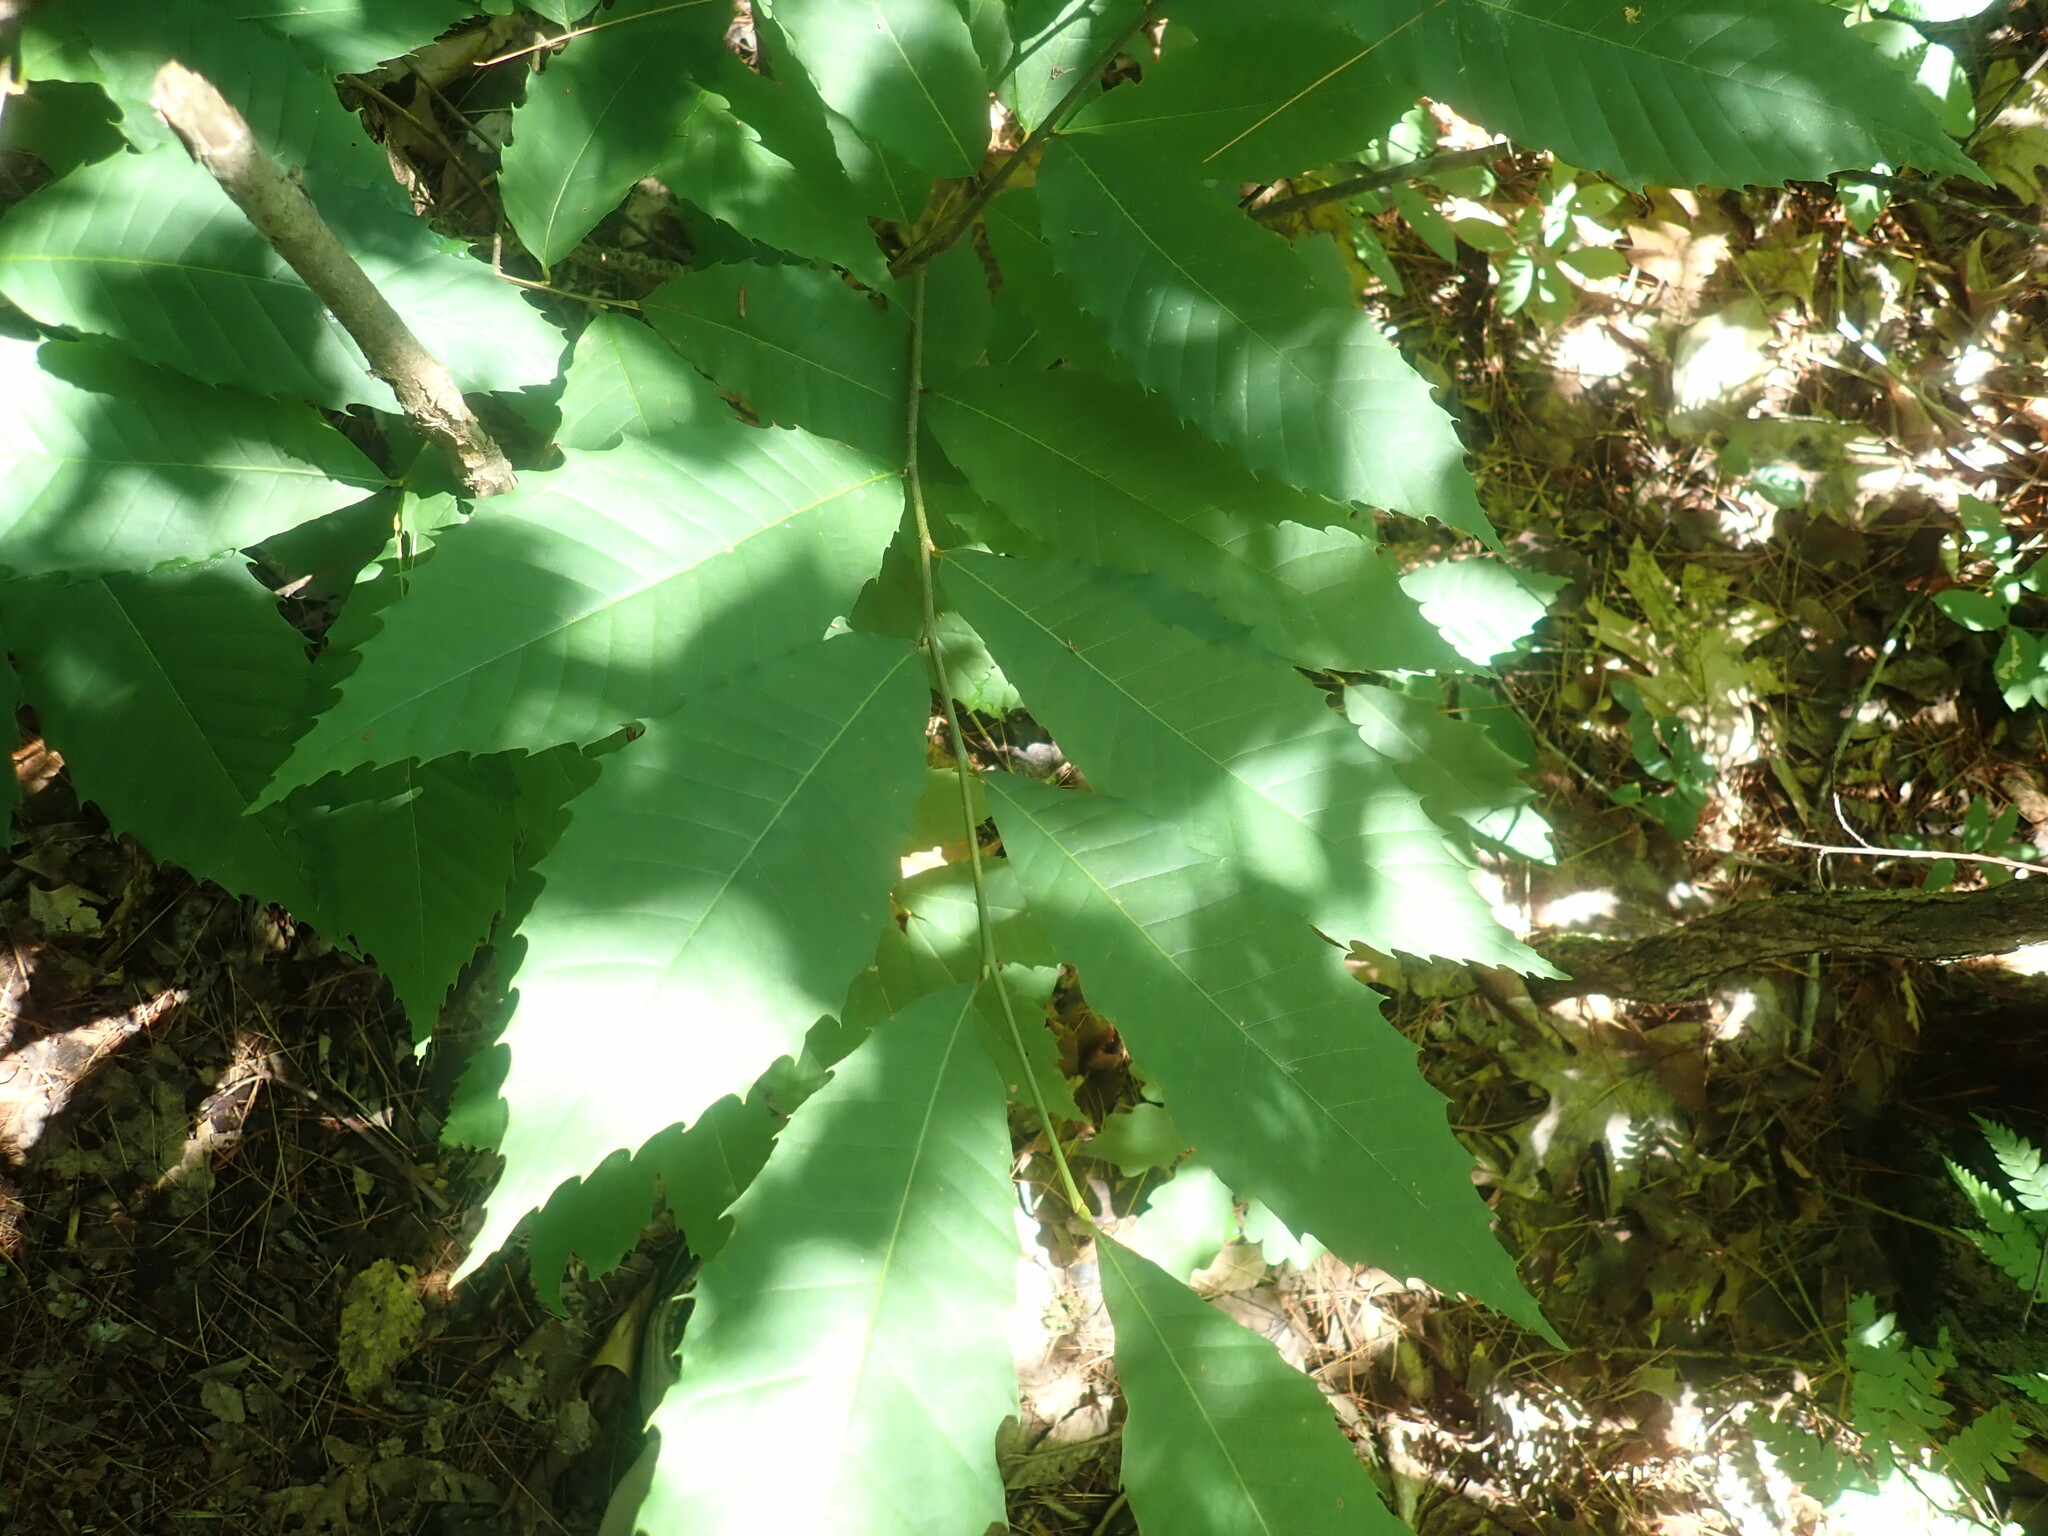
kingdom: Plantae
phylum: Tracheophyta
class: Magnoliopsida
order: Fagales
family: Fagaceae
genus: Castanea
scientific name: Castanea dentata
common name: American chestnut
